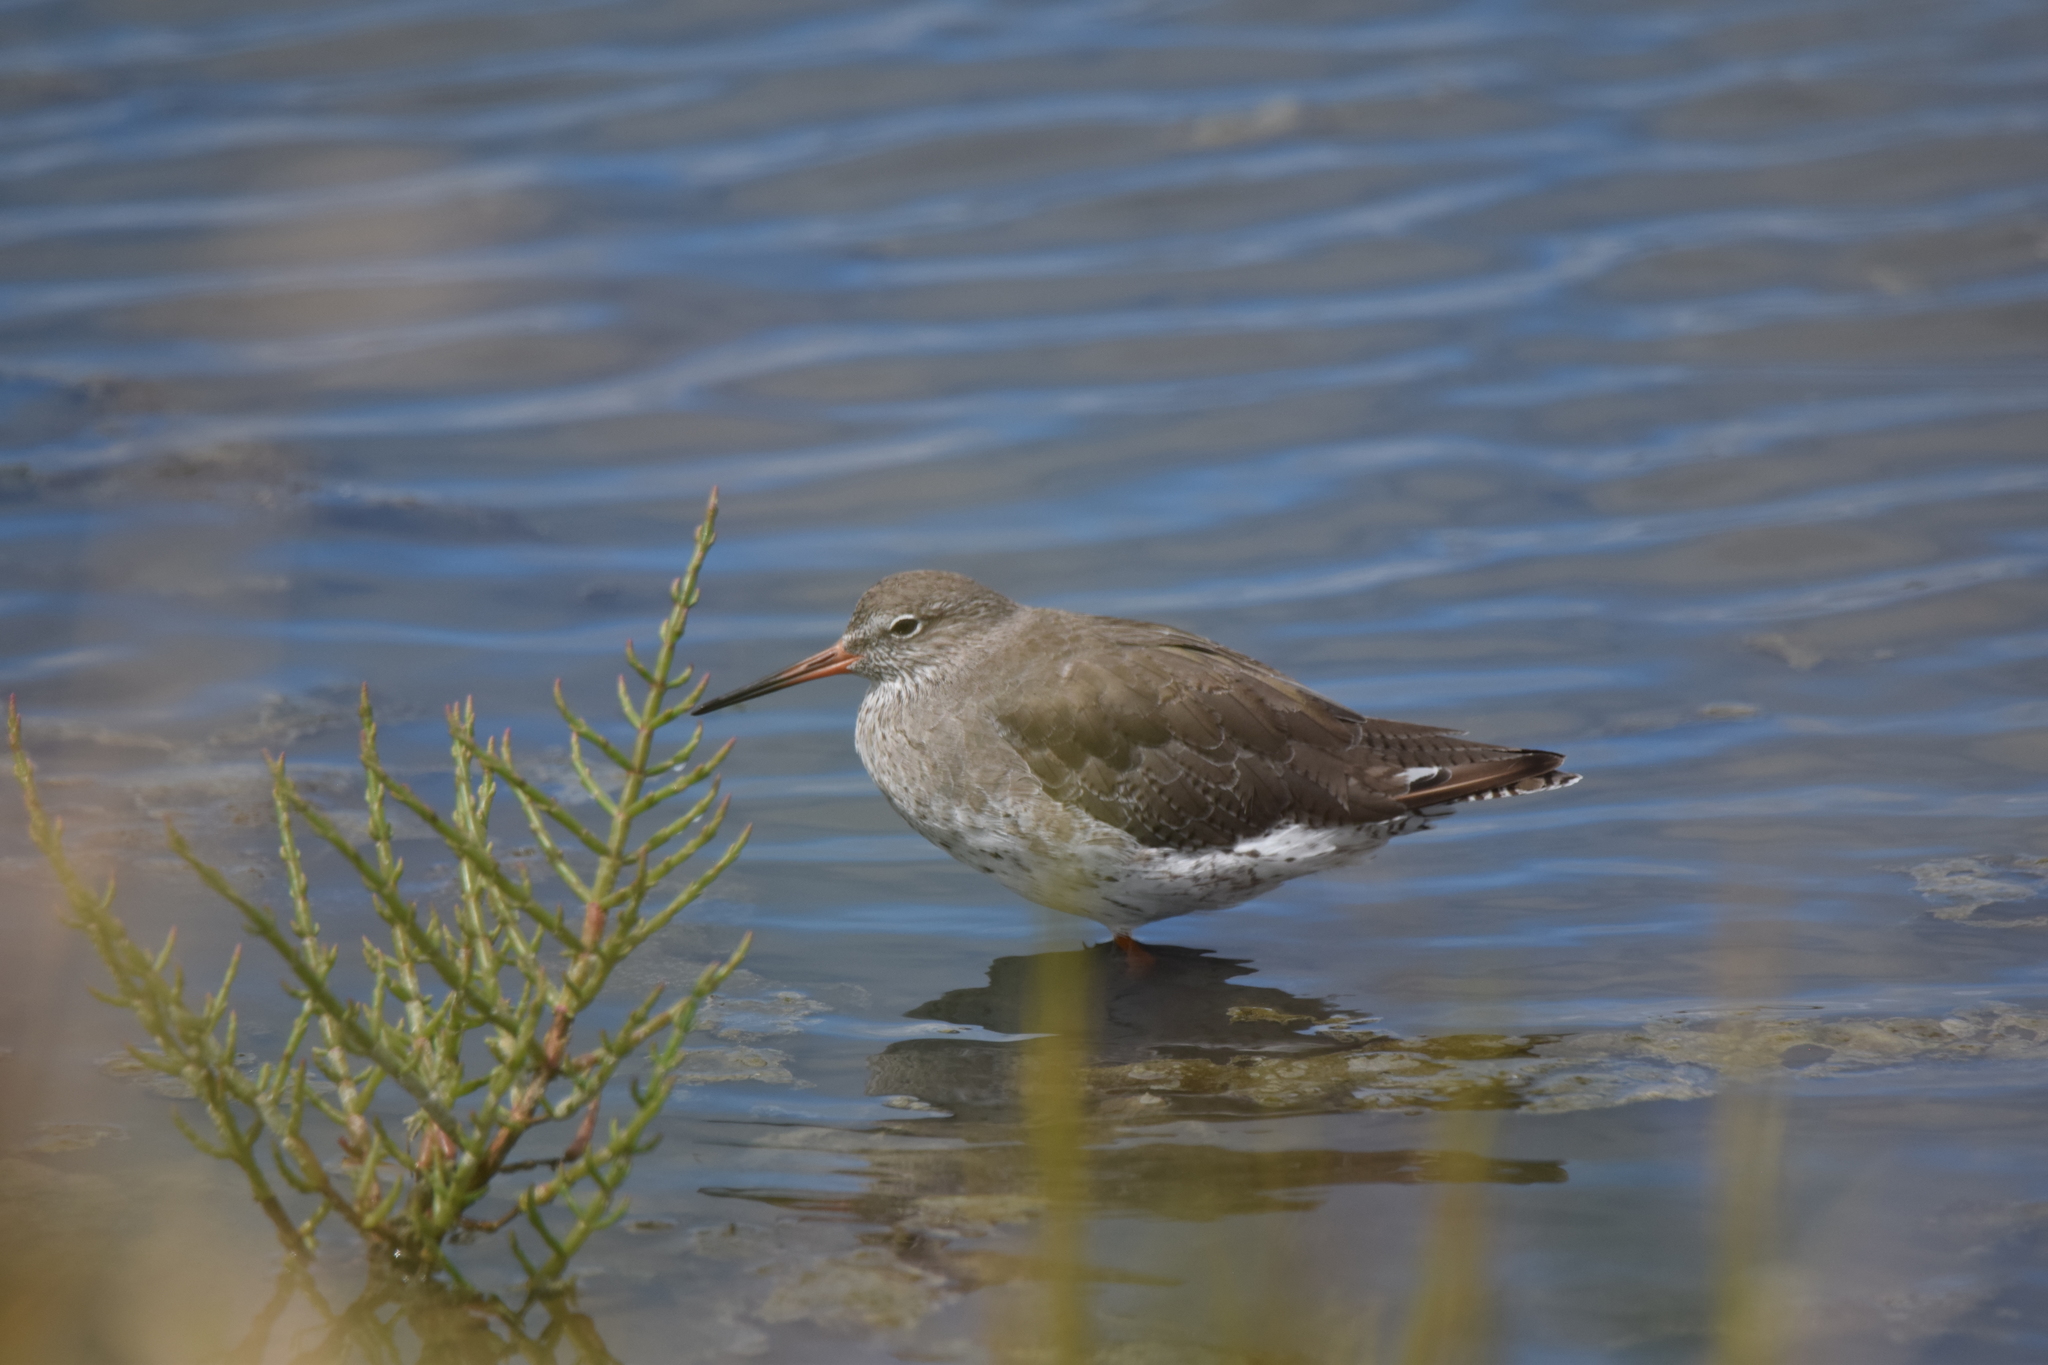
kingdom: Animalia
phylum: Chordata
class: Aves
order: Charadriiformes
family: Scolopacidae
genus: Tringa
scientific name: Tringa totanus
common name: Common redshank
